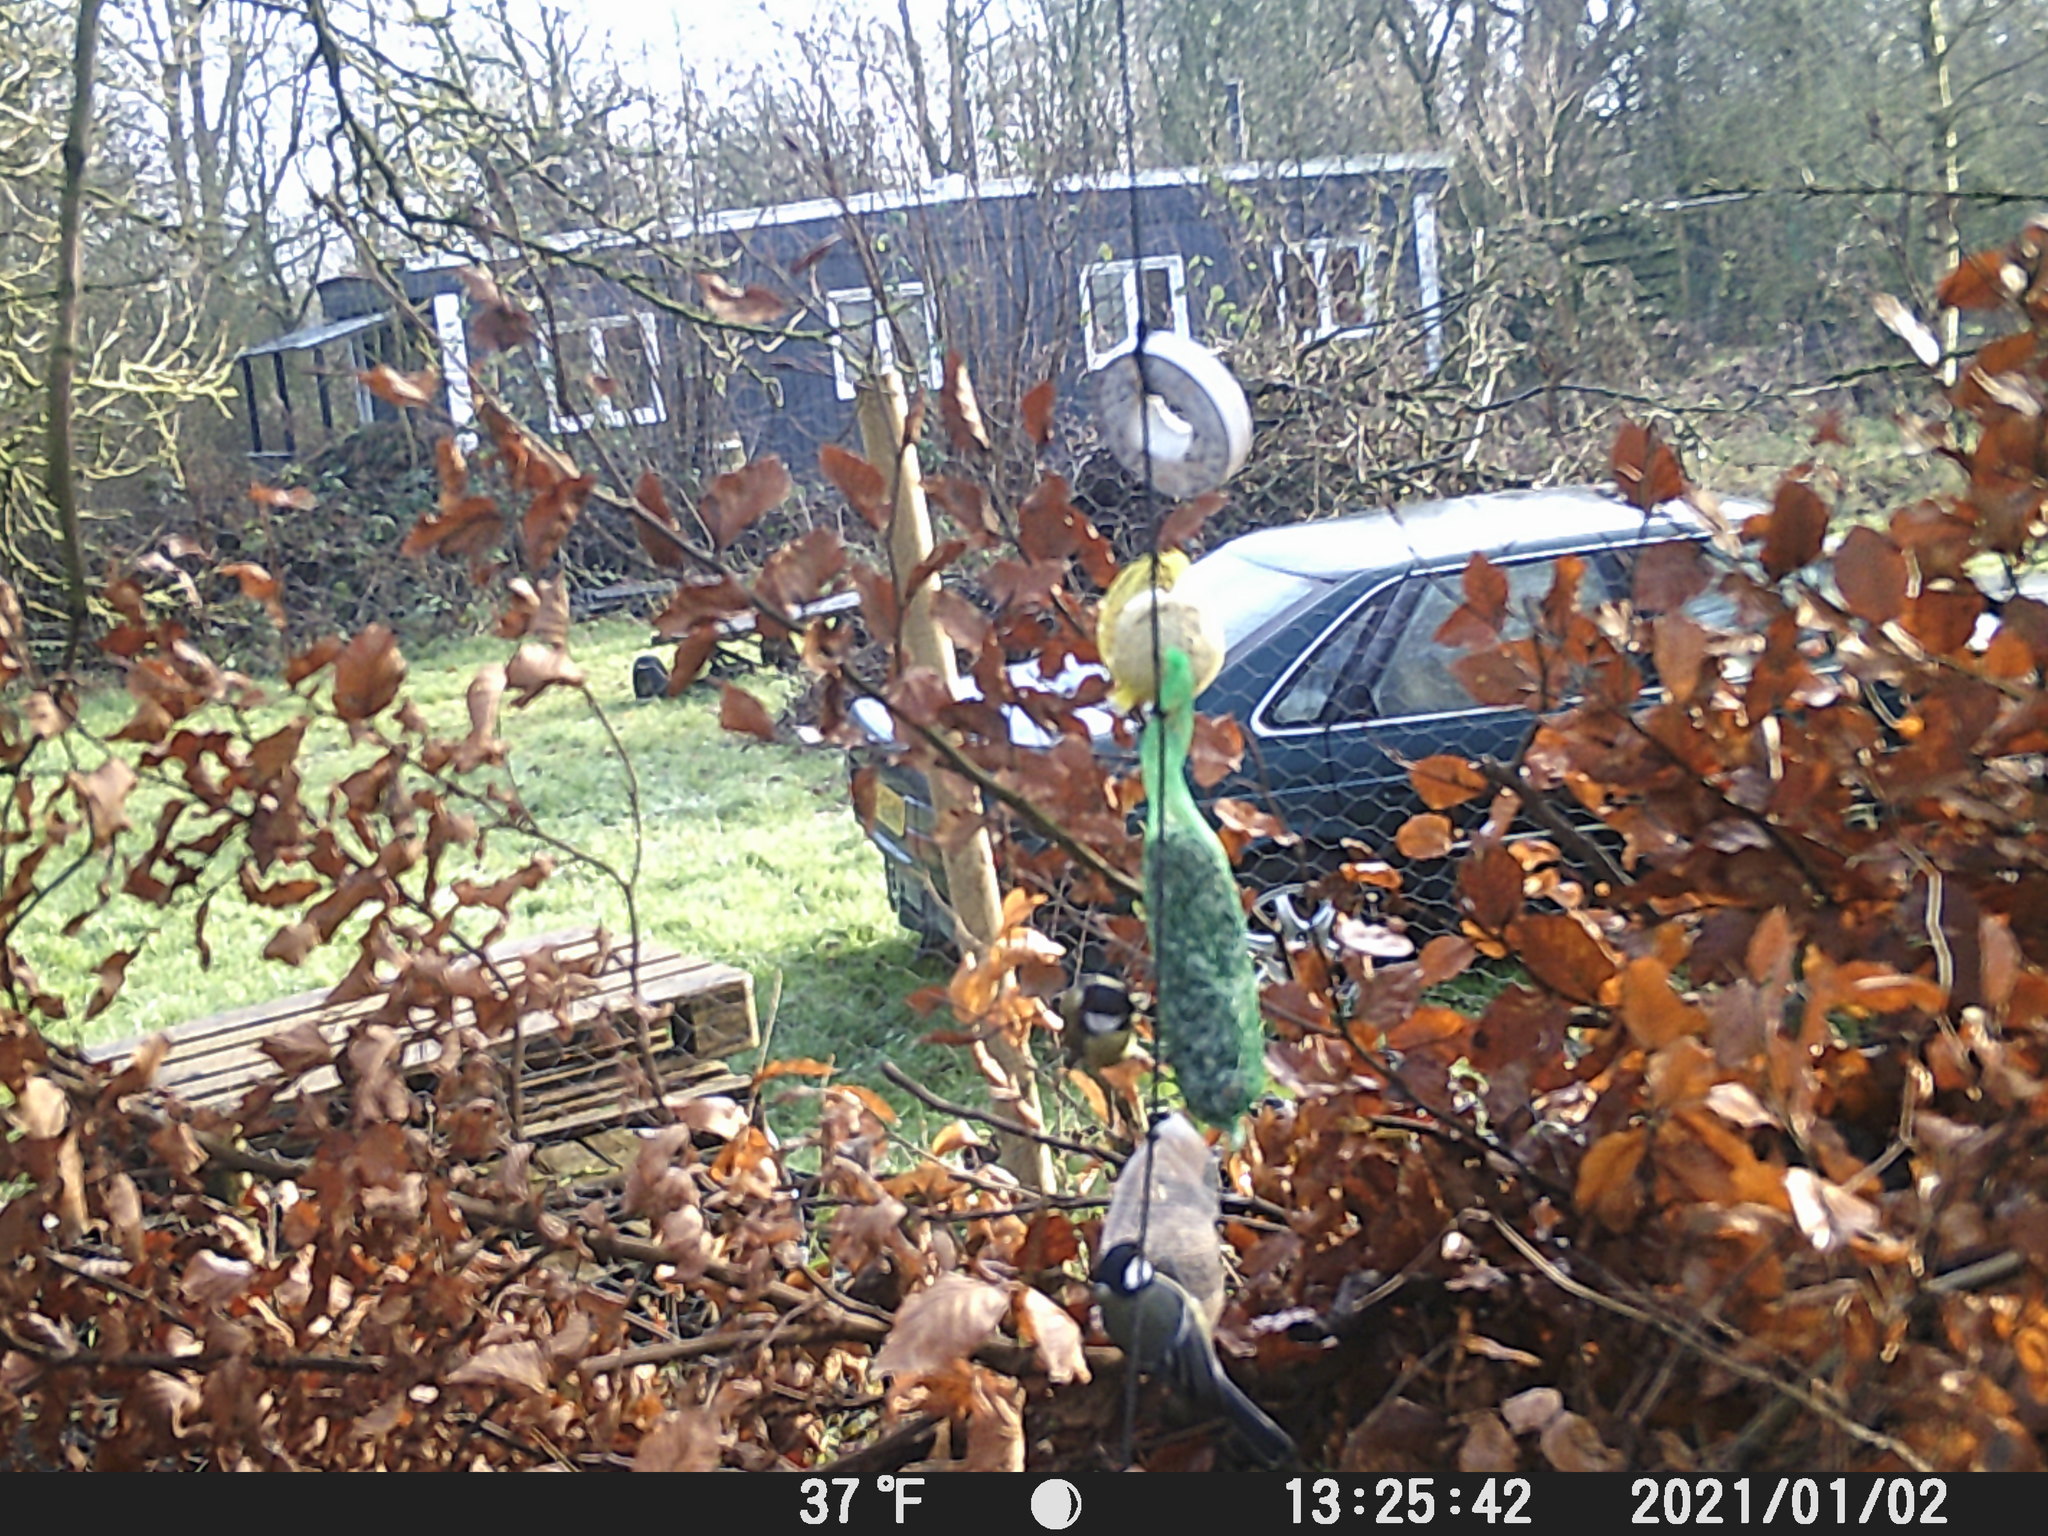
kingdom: Animalia
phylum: Chordata
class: Aves
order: Passeriformes
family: Paridae
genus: Parus
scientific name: Parus major
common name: Great tit
